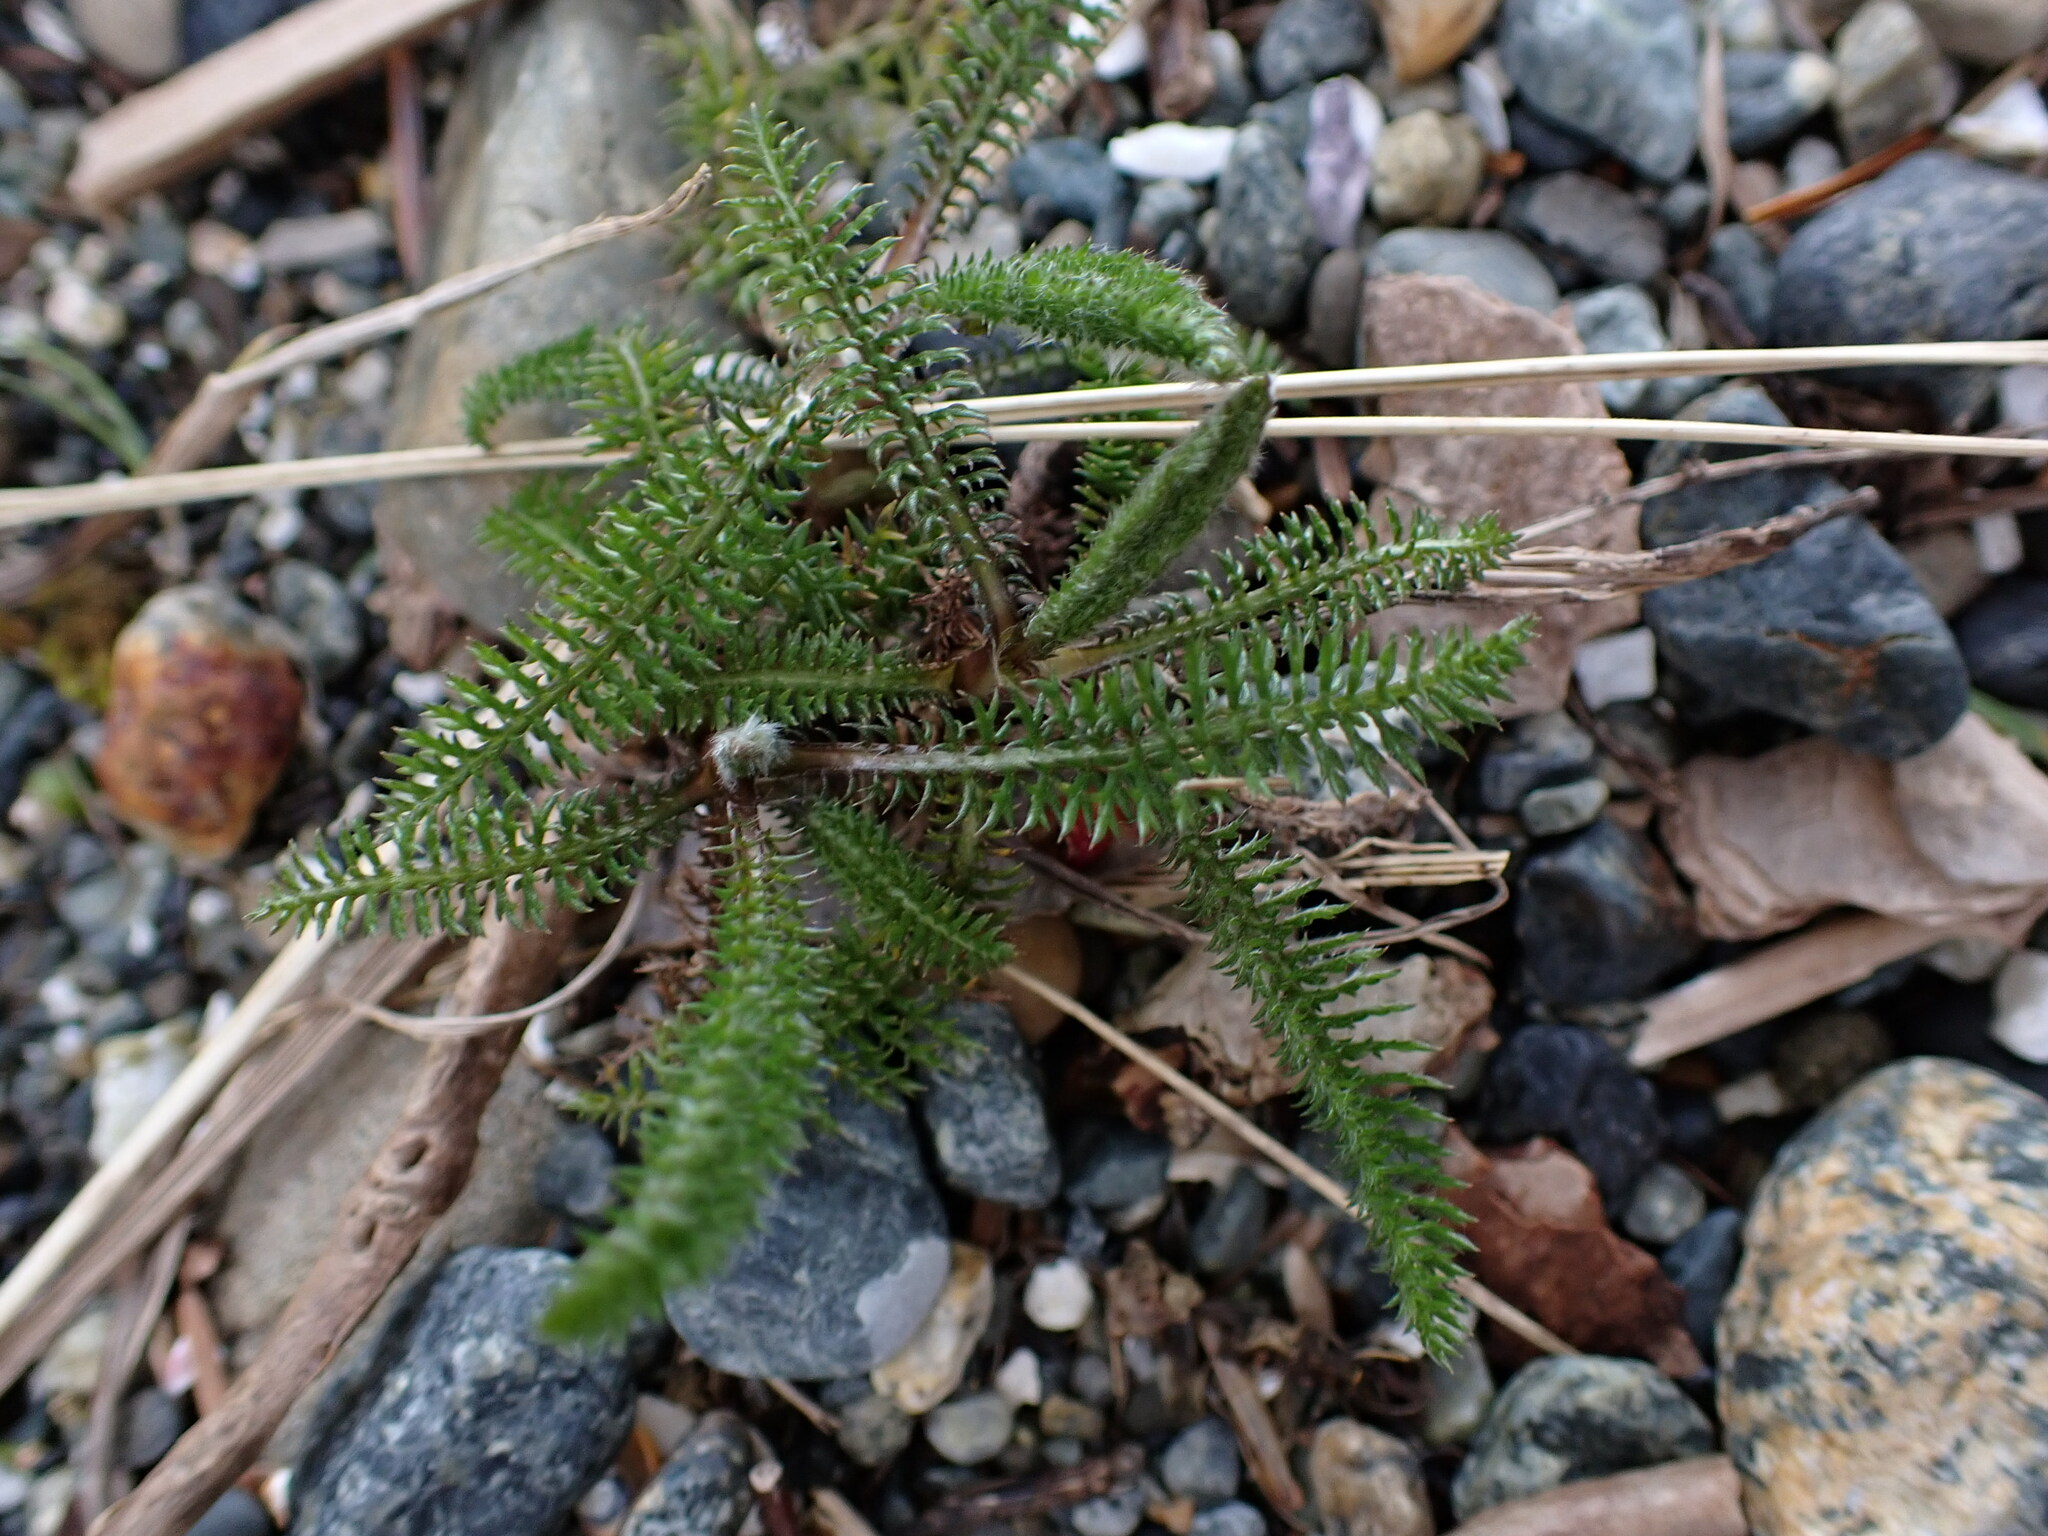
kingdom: Plantae
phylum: Tracheophyta
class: Magnoliopsida
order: Asterales
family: Asteraceae
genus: Achillea
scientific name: Achillea millefolium
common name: Yarrow
